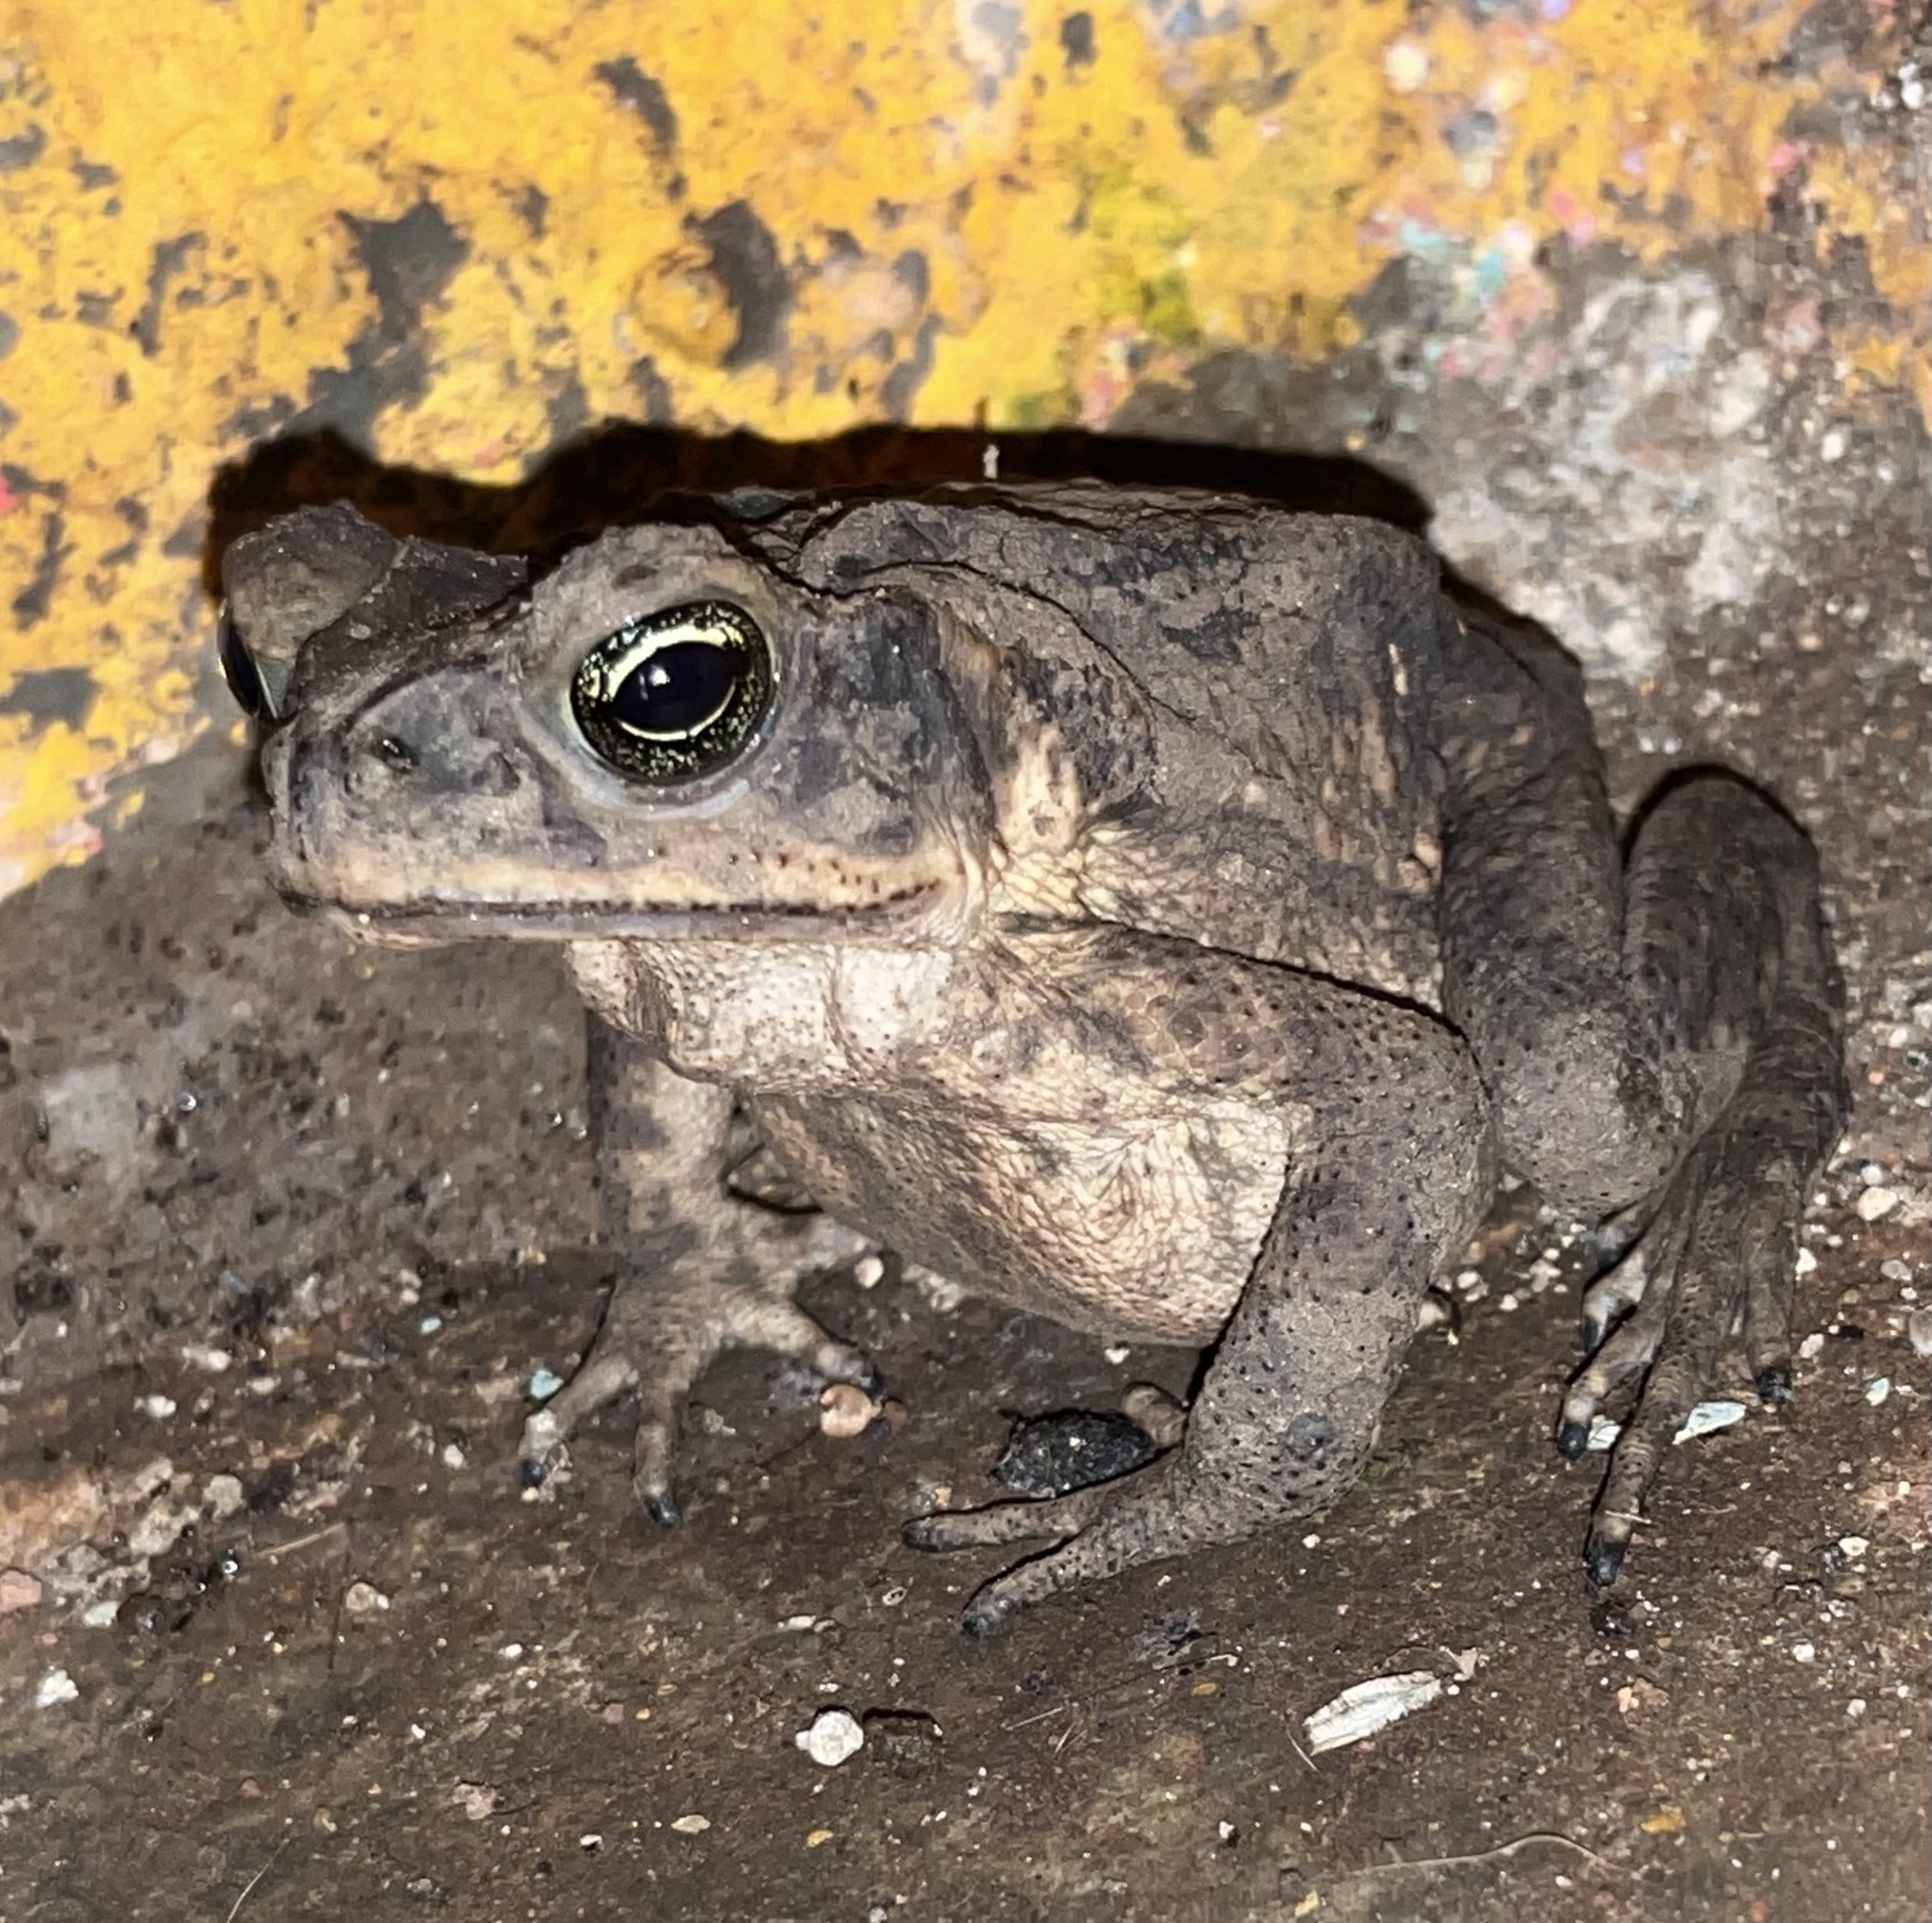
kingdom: Animalia
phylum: Chordata
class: Amphibia
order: Anura
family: Bufonidae
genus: Rhinella
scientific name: Rhinella horribilis
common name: Mesoamerican cane toad
